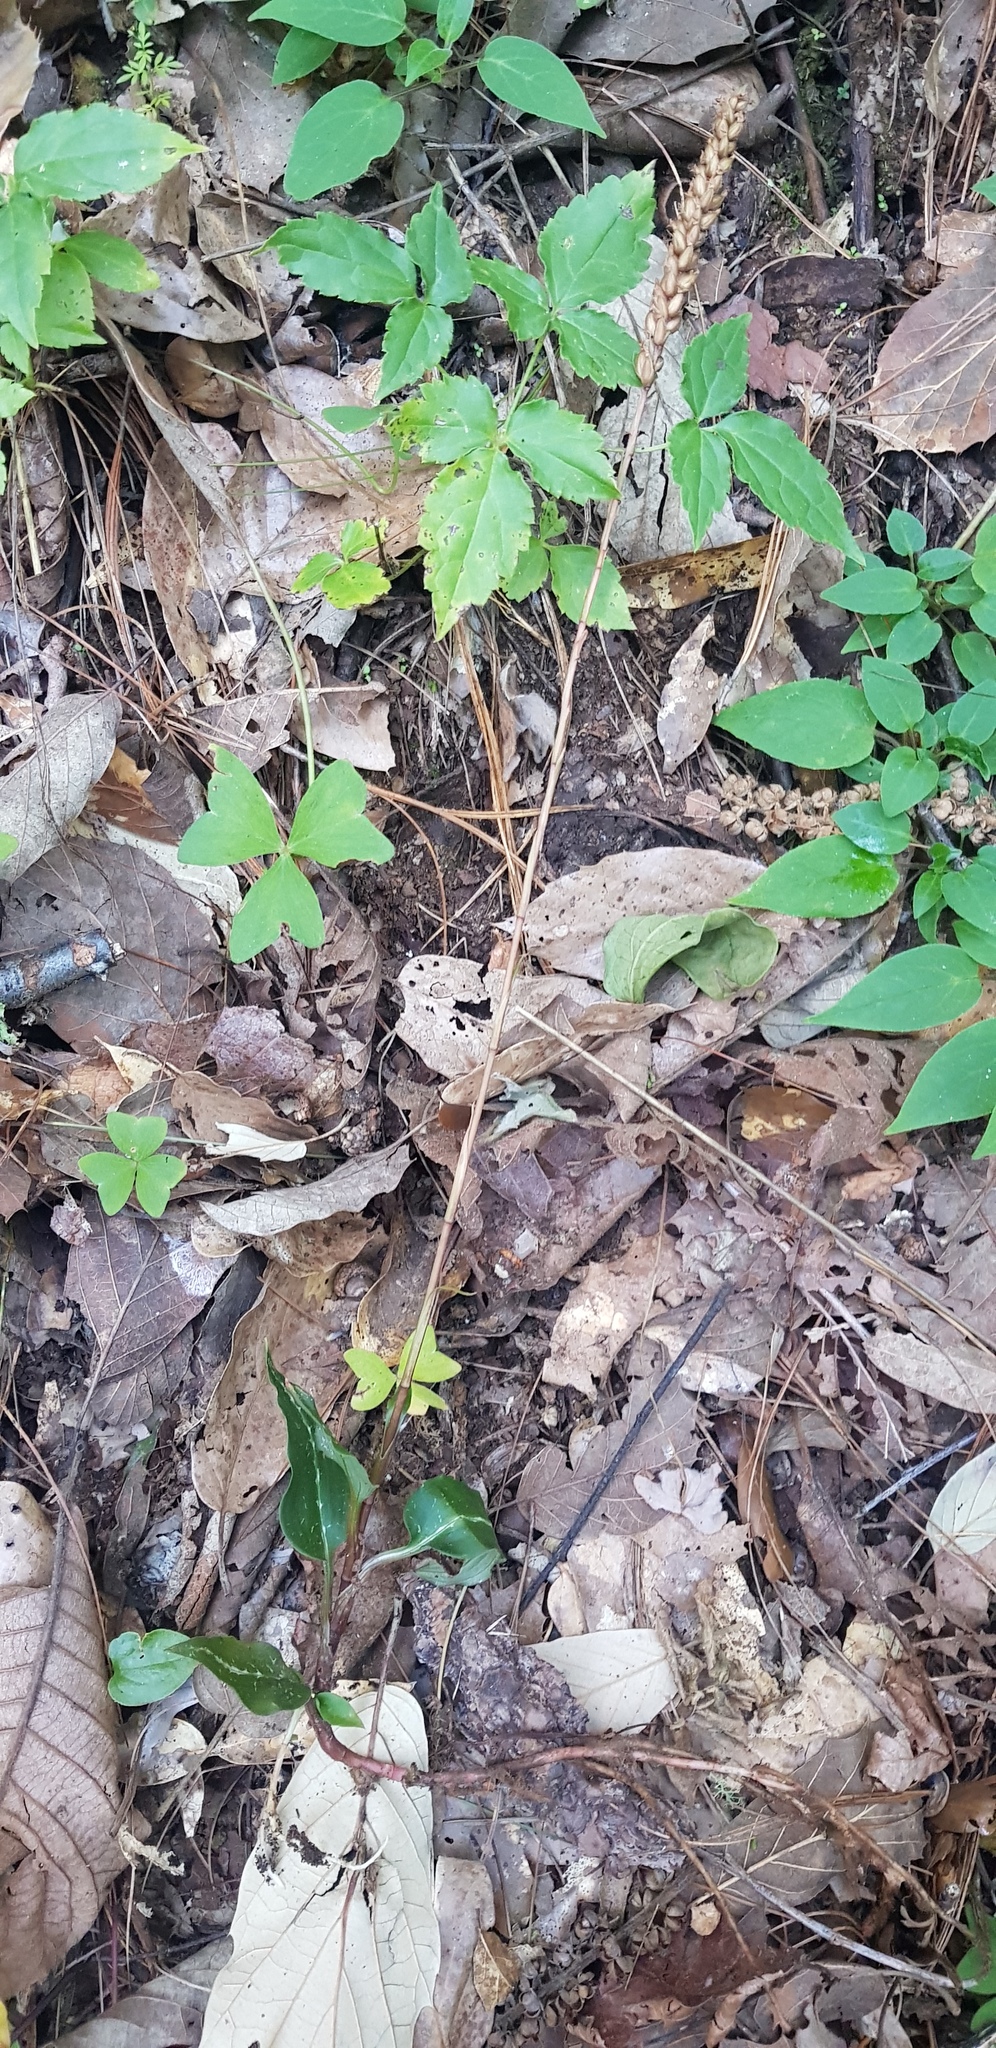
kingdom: Plantae
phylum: Tracheophyta
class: Liliopsida
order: Asparagales
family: Orchidaceae
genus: Goodyera
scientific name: Goodyera striata
